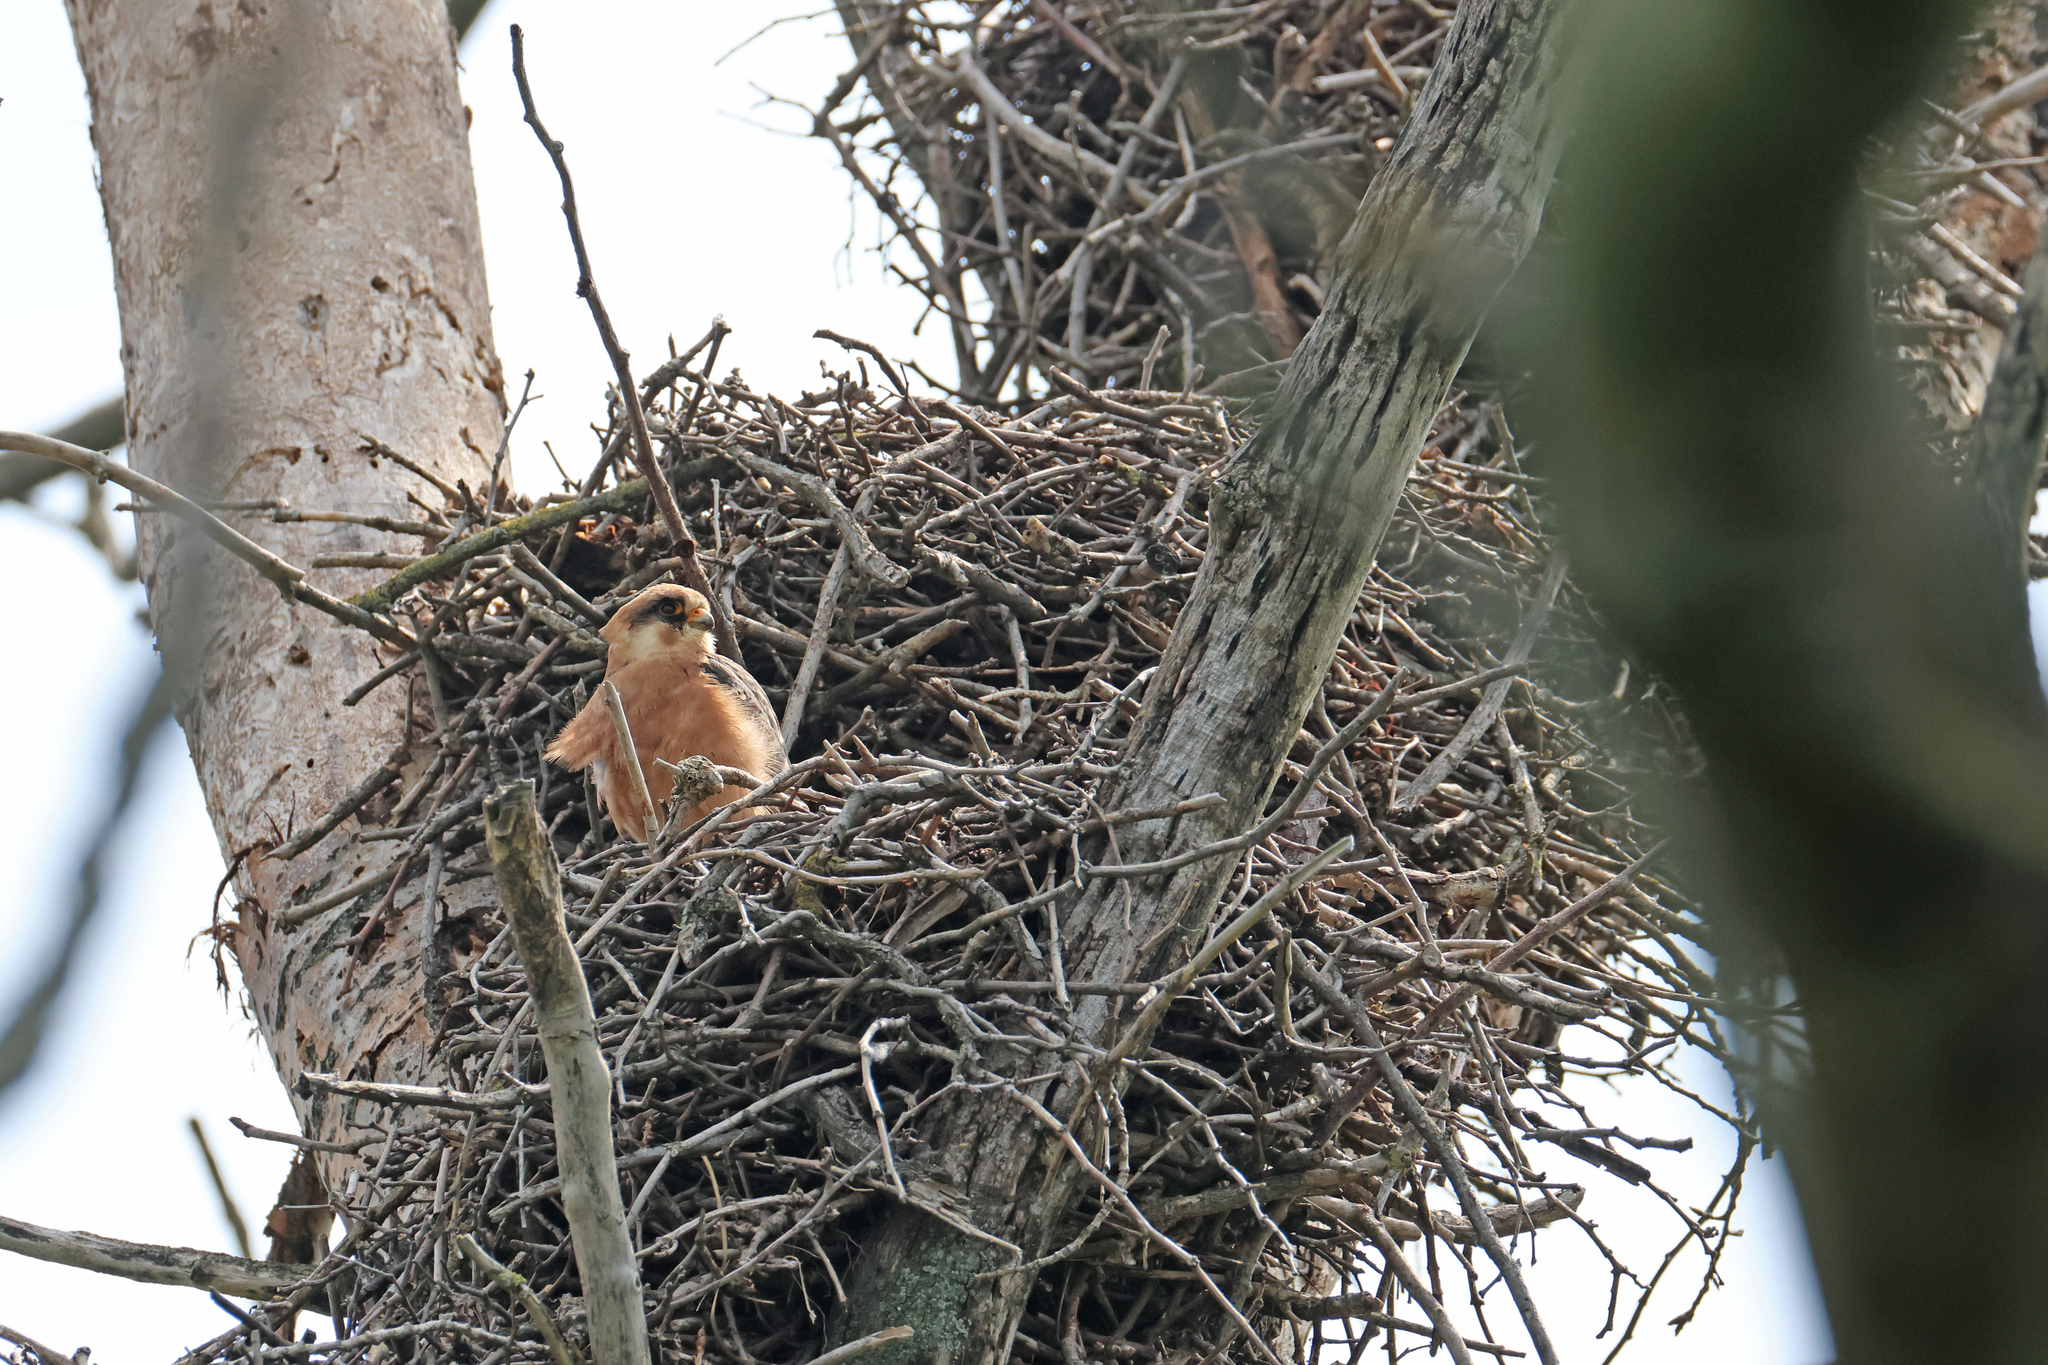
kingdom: Animalia
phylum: Chordata
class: Aves
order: Falconiformes
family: Falconidae
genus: Falco
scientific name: Falco vespertinus
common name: Red-footed falcon
